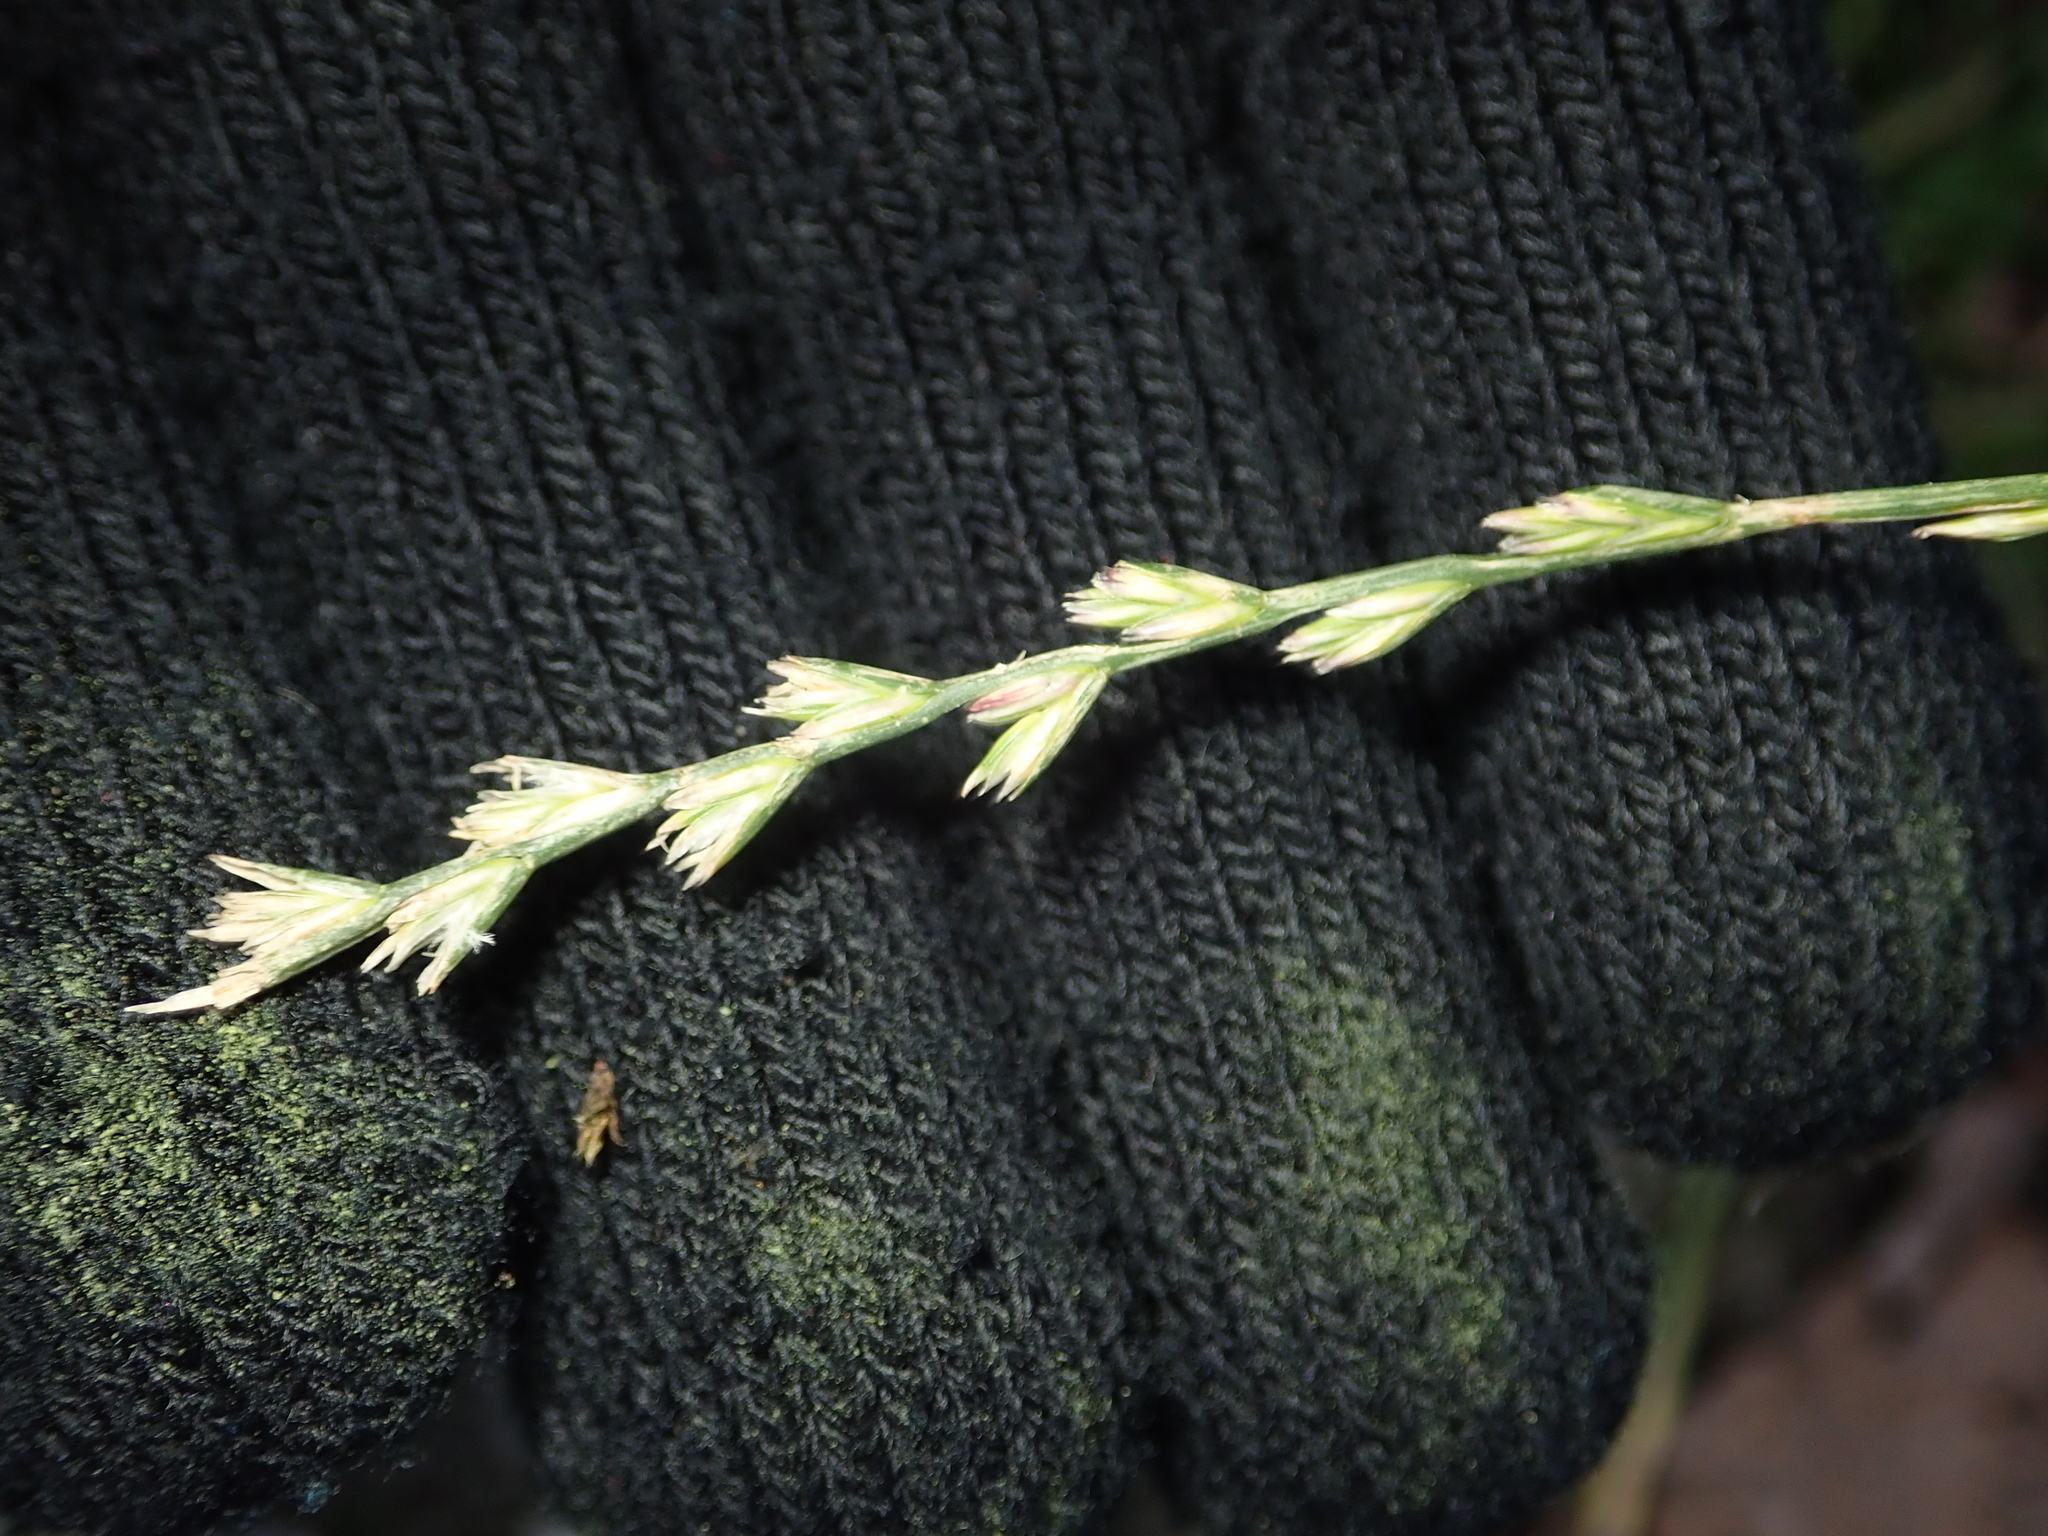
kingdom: Plantae
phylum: Tracheophyta
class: Liliopsida
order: Poales
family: Poaceae
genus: Lolium
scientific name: Lolium perenne
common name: Perennial ryegrass
